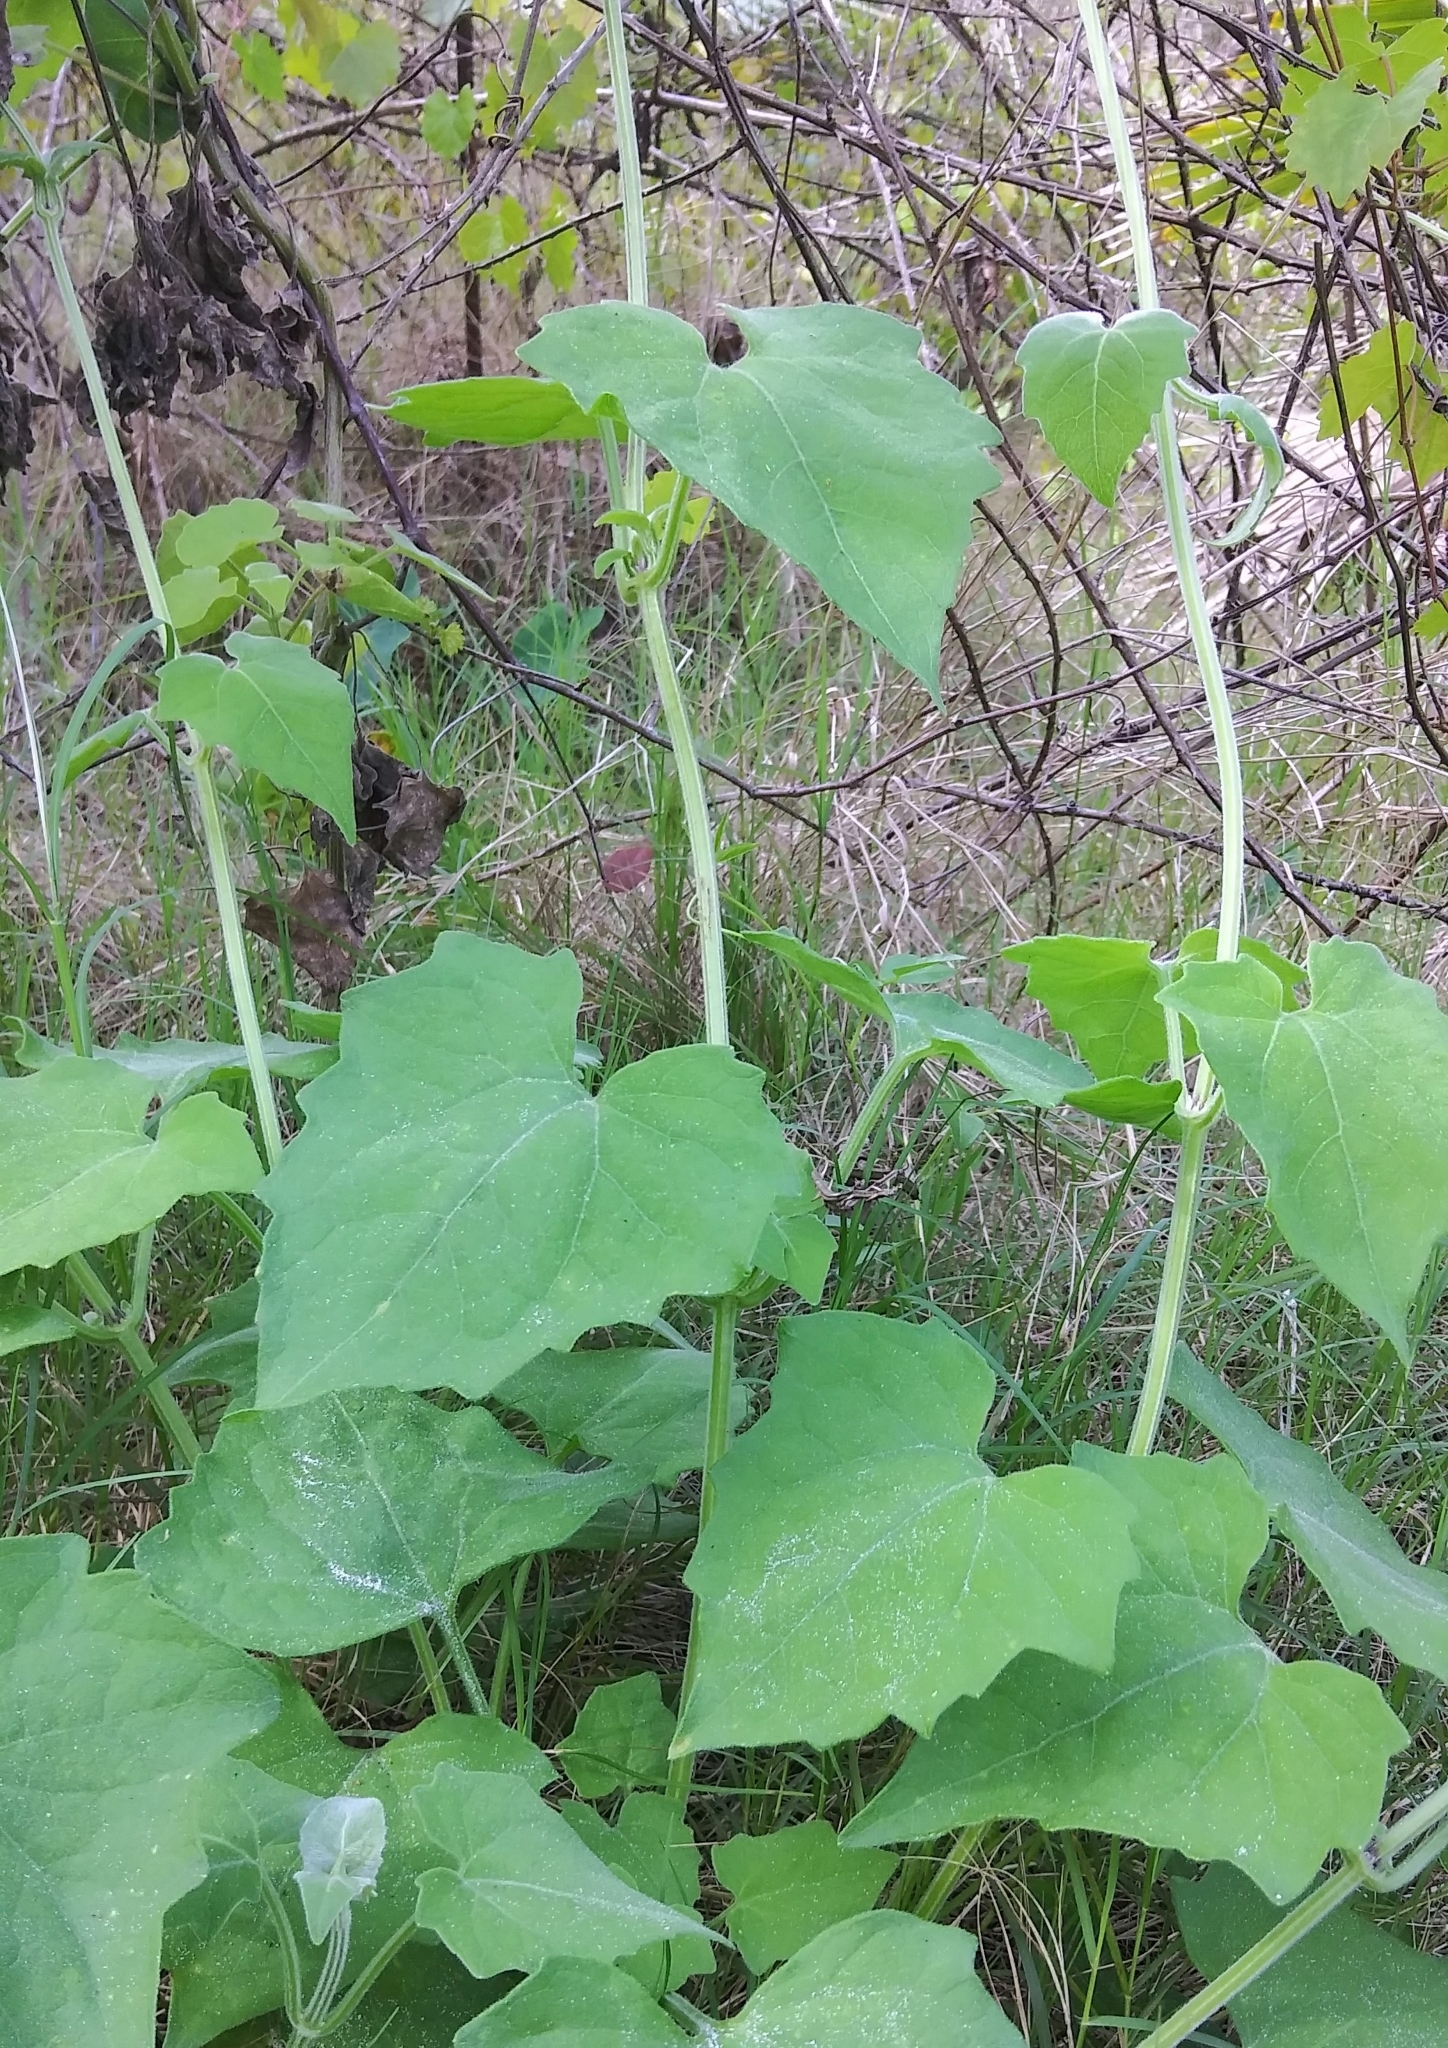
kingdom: Plantae
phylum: Tracheophyta
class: Magnoliopsida
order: Asterales
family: Asteraceae
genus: Mikania
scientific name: Mikania cordifolia
